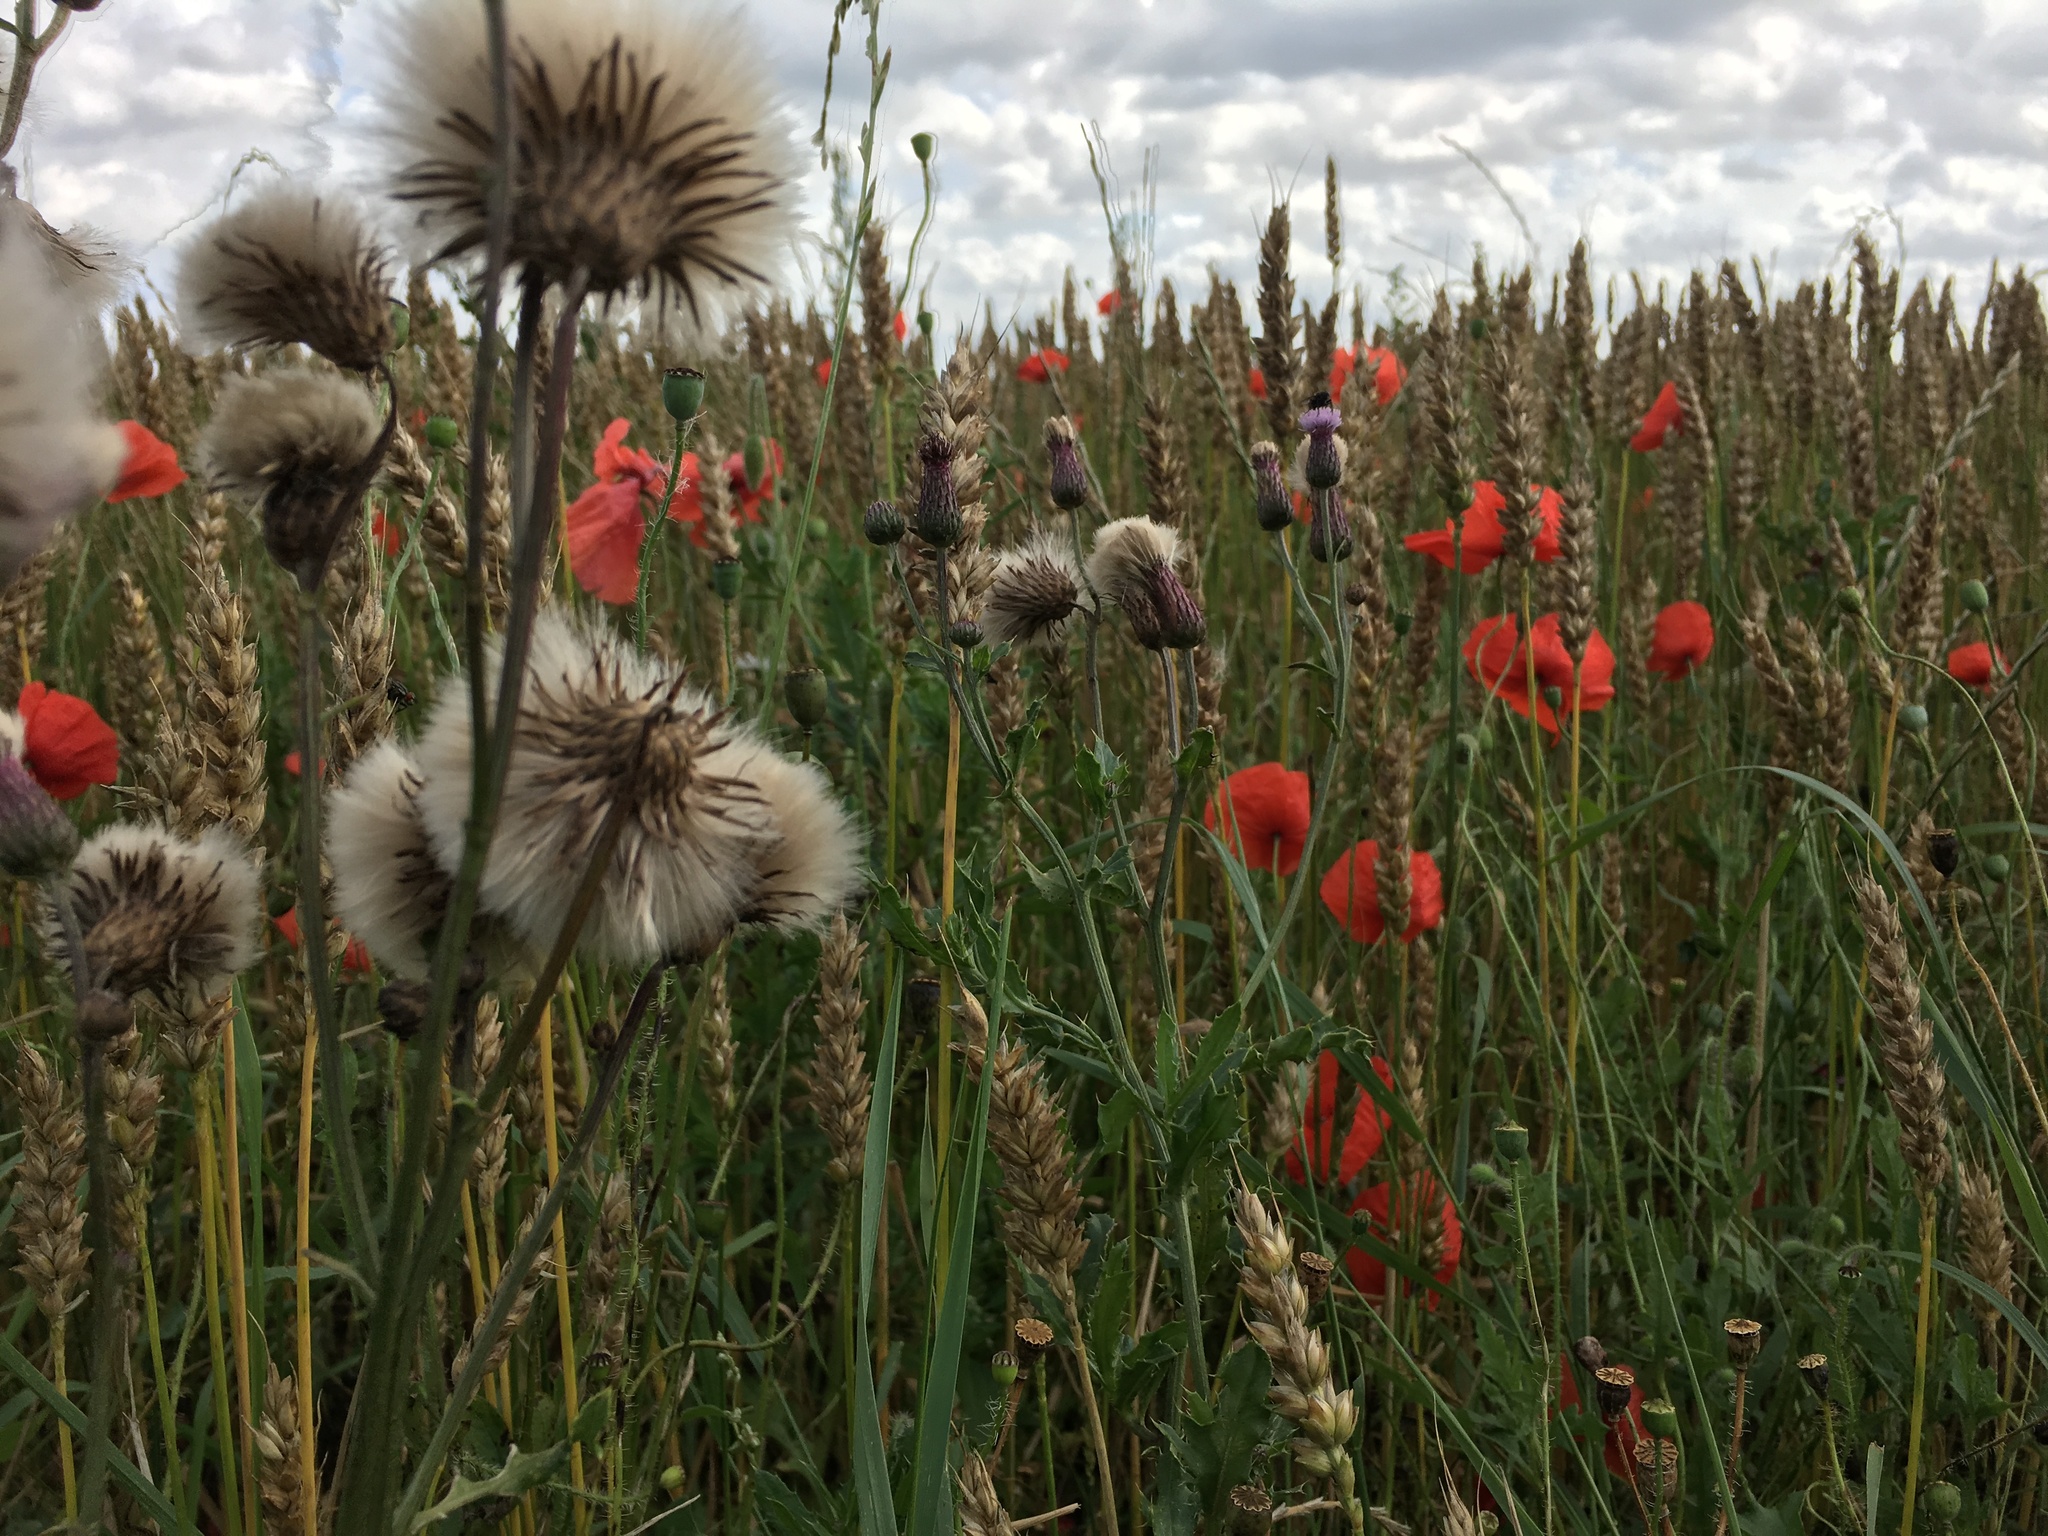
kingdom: Plantae
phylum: Tracheophyta
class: Magnoliopsida
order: Ranunculales
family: Papaveraceae
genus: Papaver
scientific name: Papaver rhoeas
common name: Corn poppy
